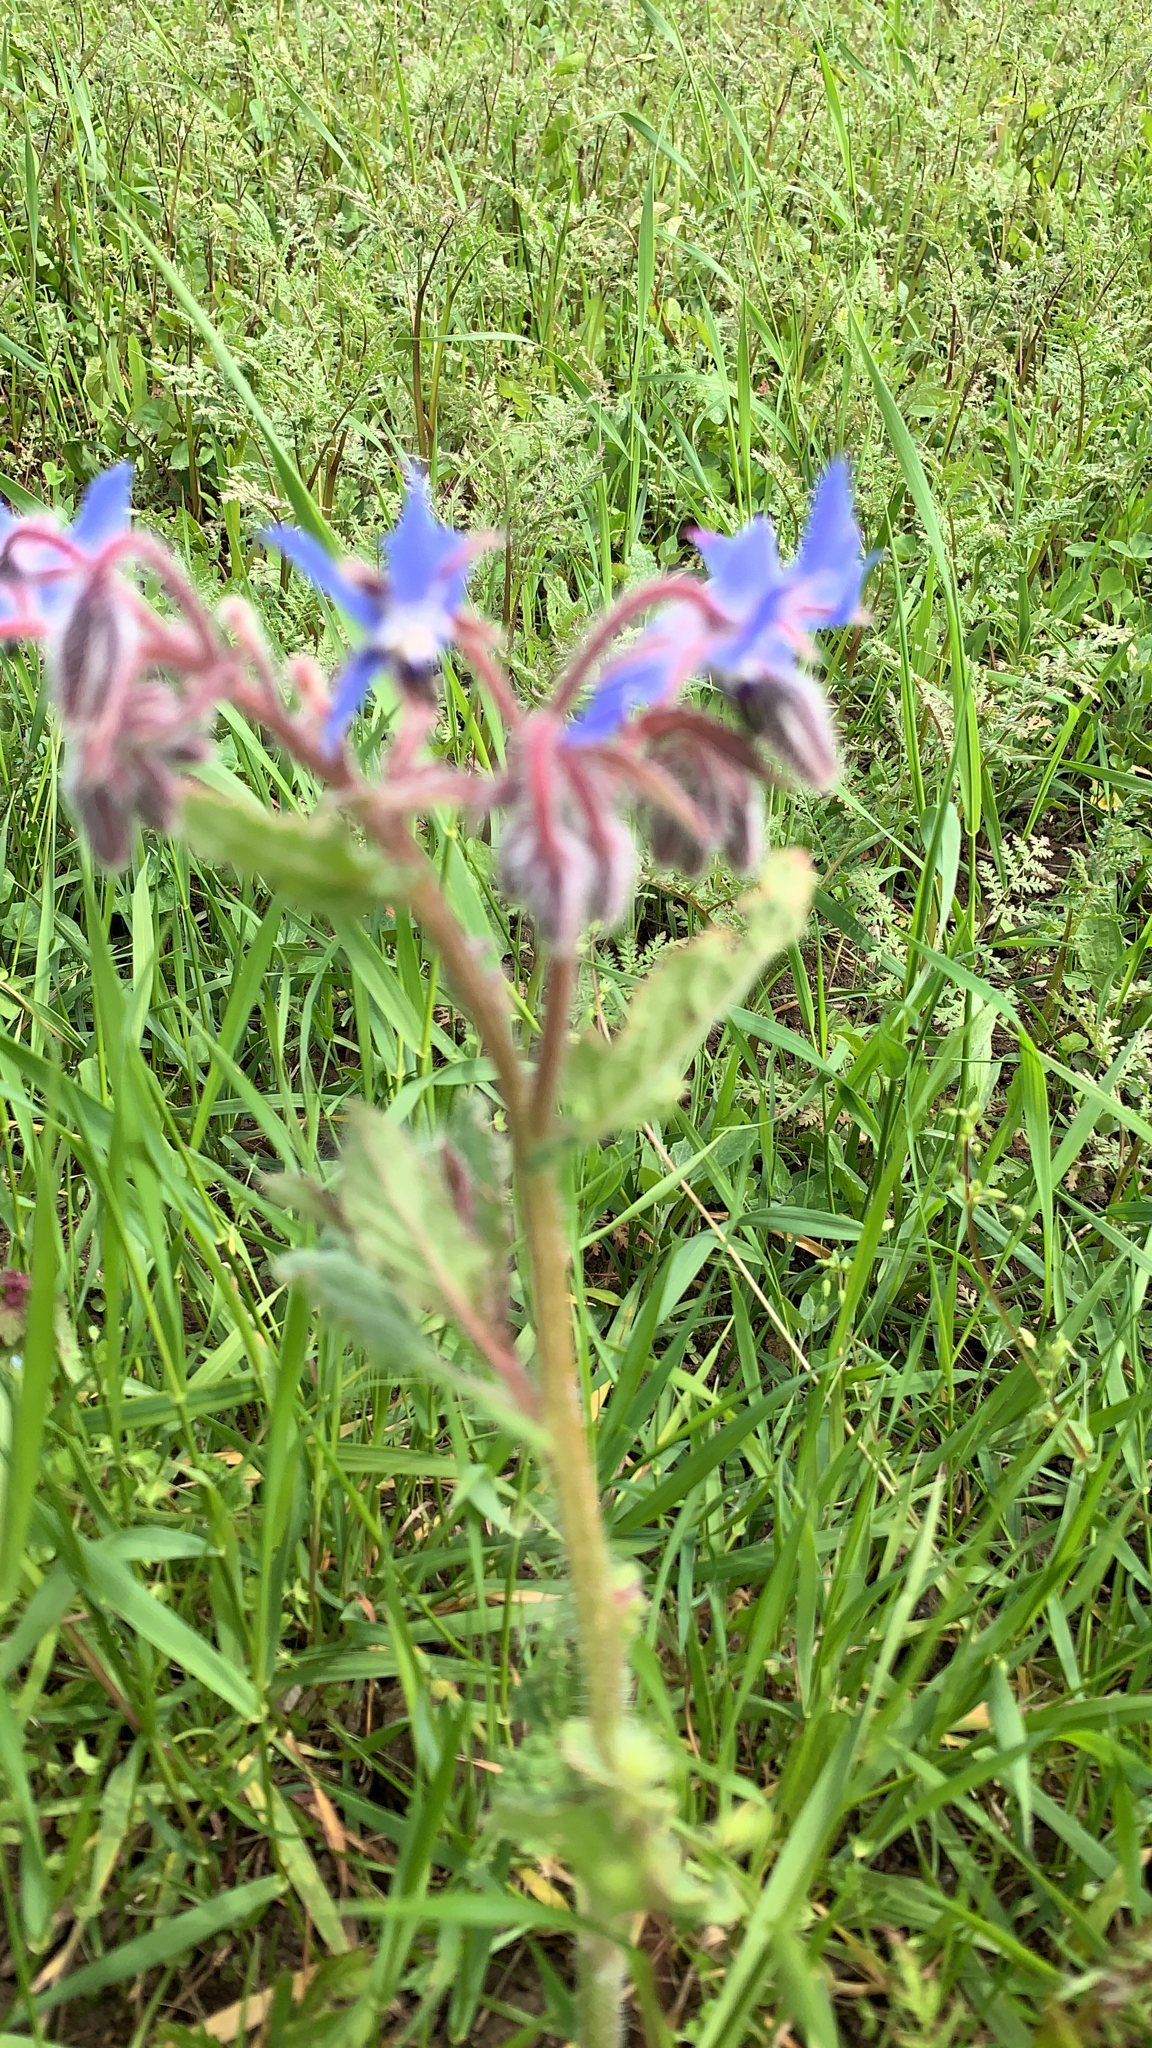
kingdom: Plantae
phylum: Tracheophyta
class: Magnoliopsida
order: Boraginales
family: Boraginaceae
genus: Borago
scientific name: Borago officinalis
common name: Borage
